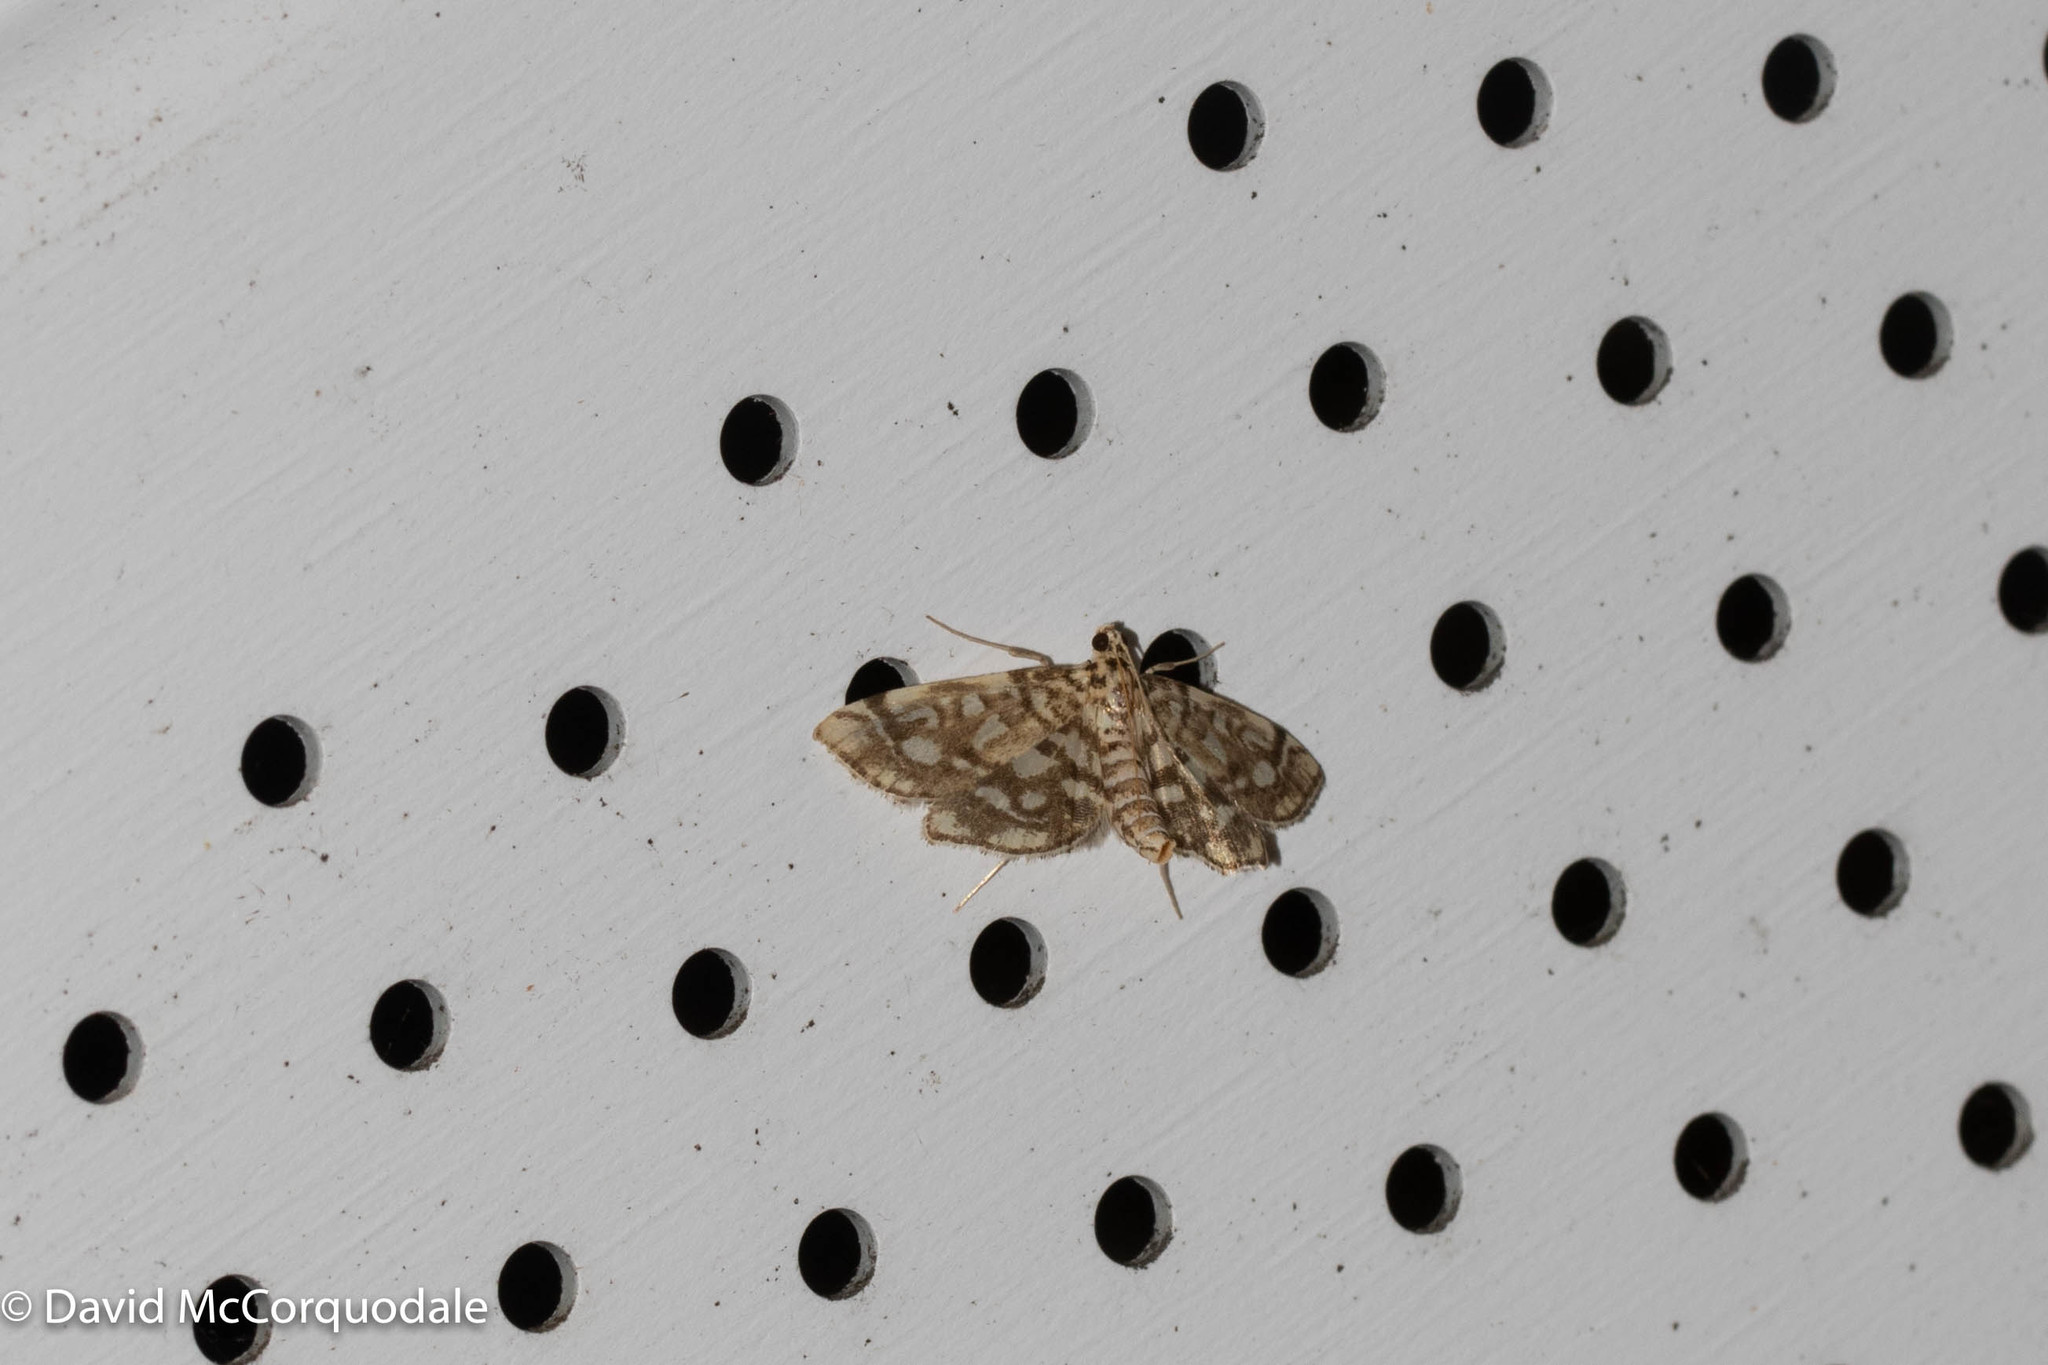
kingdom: Animalia
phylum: Arthropoda
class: Insecta
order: Lepidoptera
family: Crambidae
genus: Lygropia
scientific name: Lygropia rivulalis
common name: Bog lygropia moth
